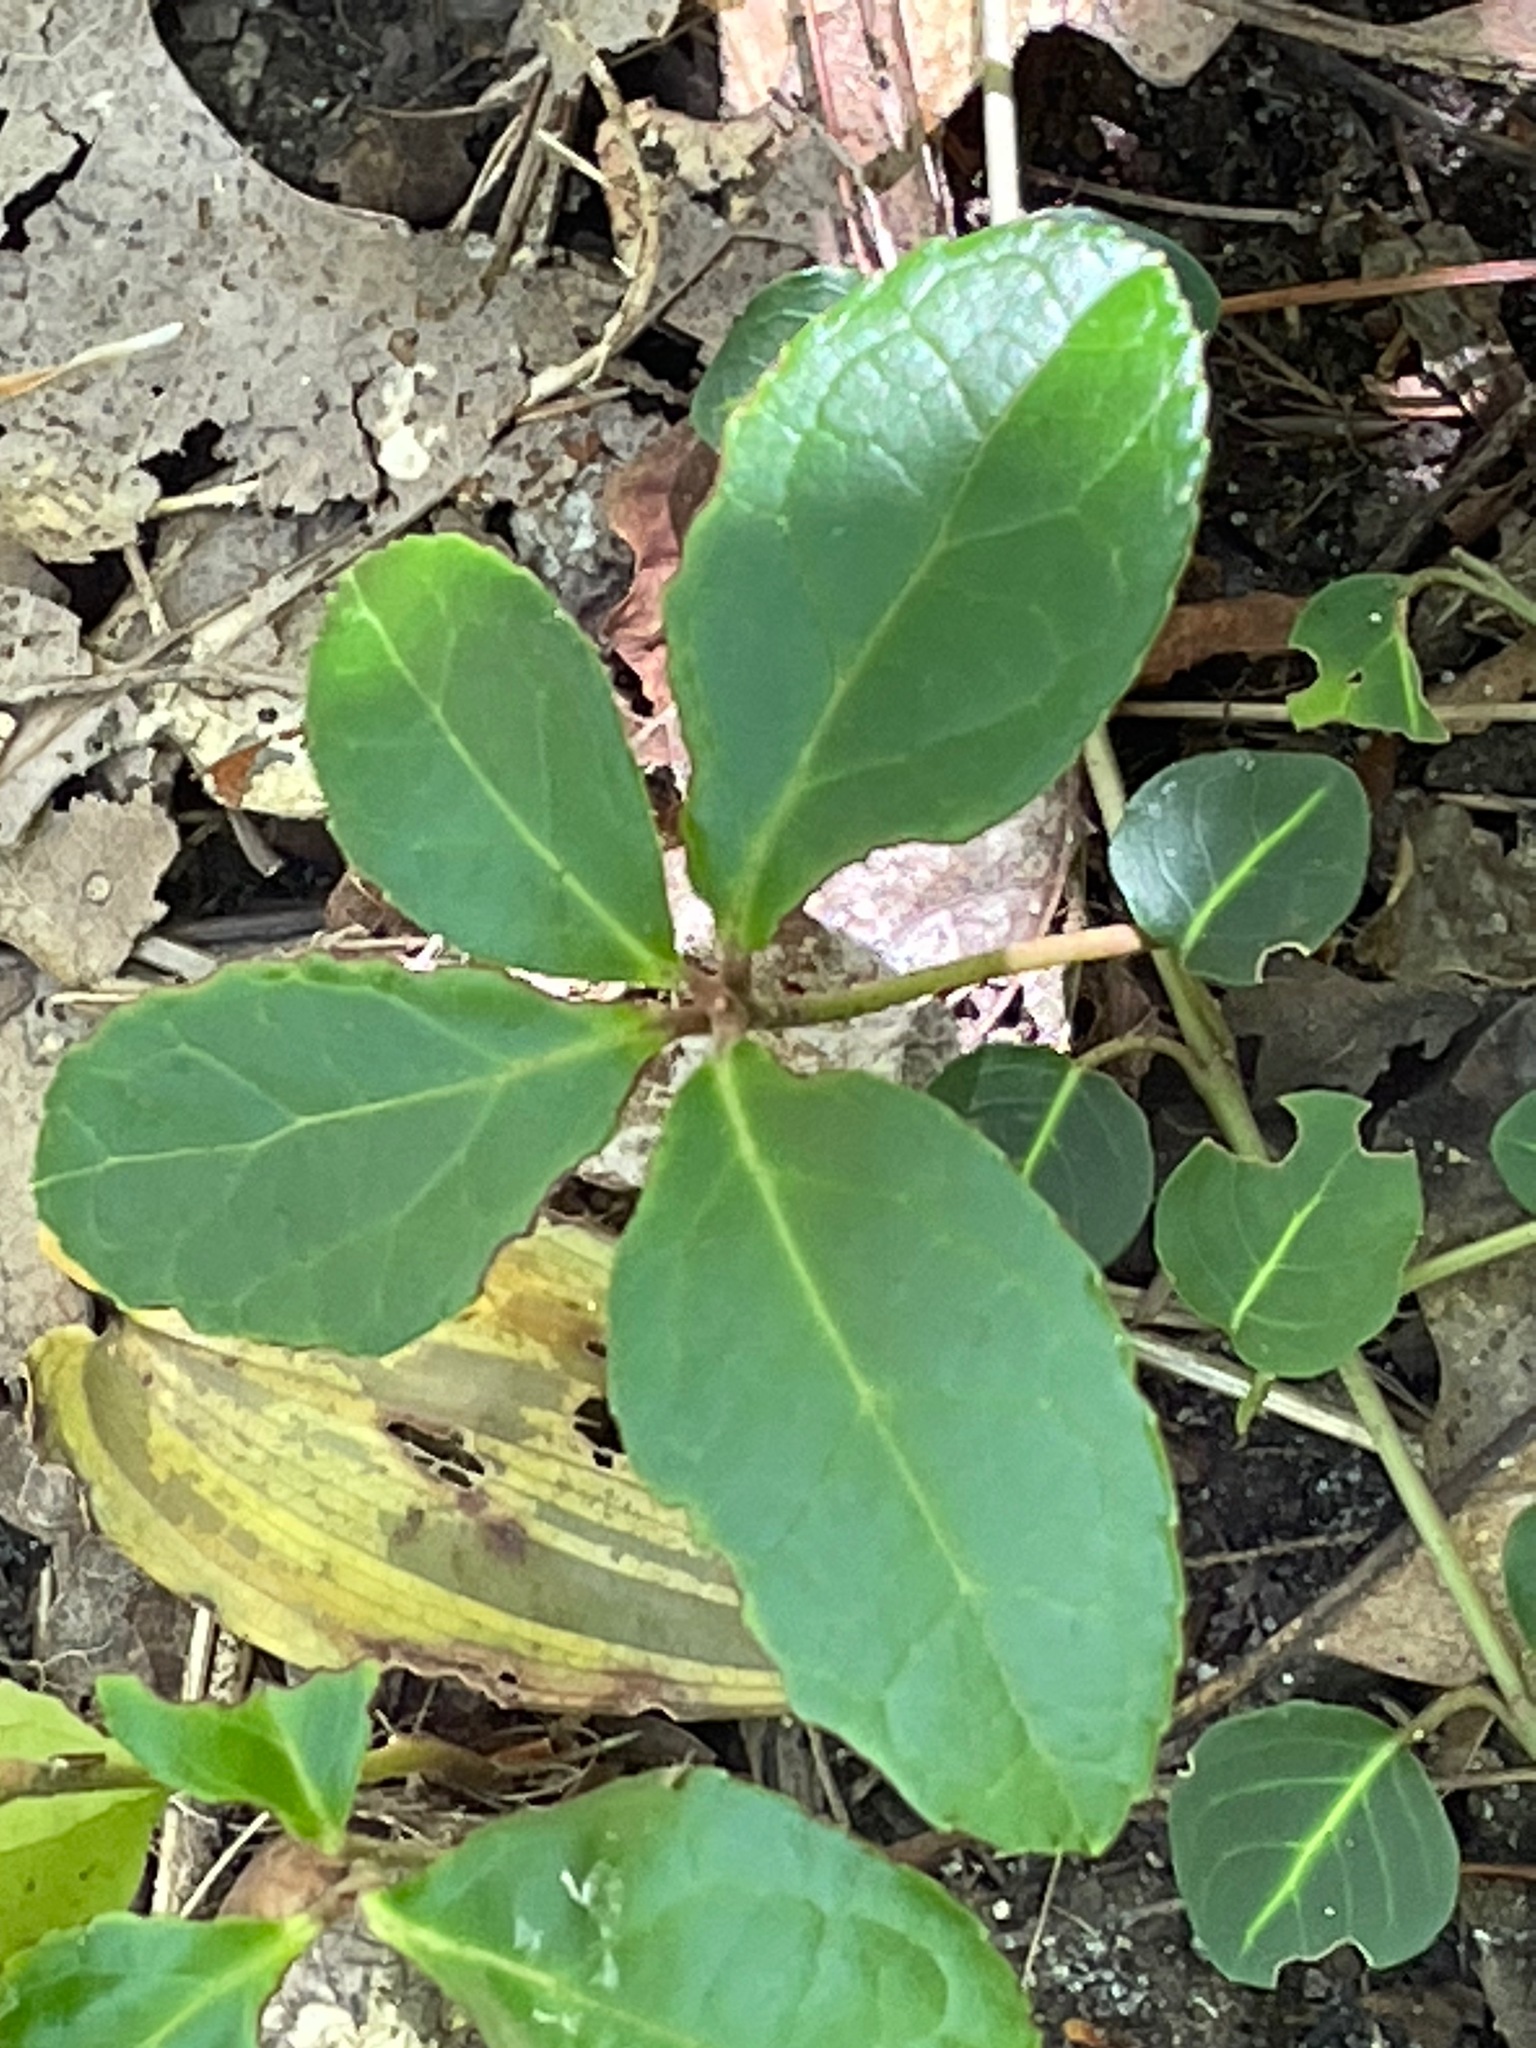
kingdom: Plantae
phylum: Tracheophyta
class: Magnoliopsida
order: Ericales
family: Ericaceae
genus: Gaultheria
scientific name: Gaultheria procumbens
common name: Checkerberry
